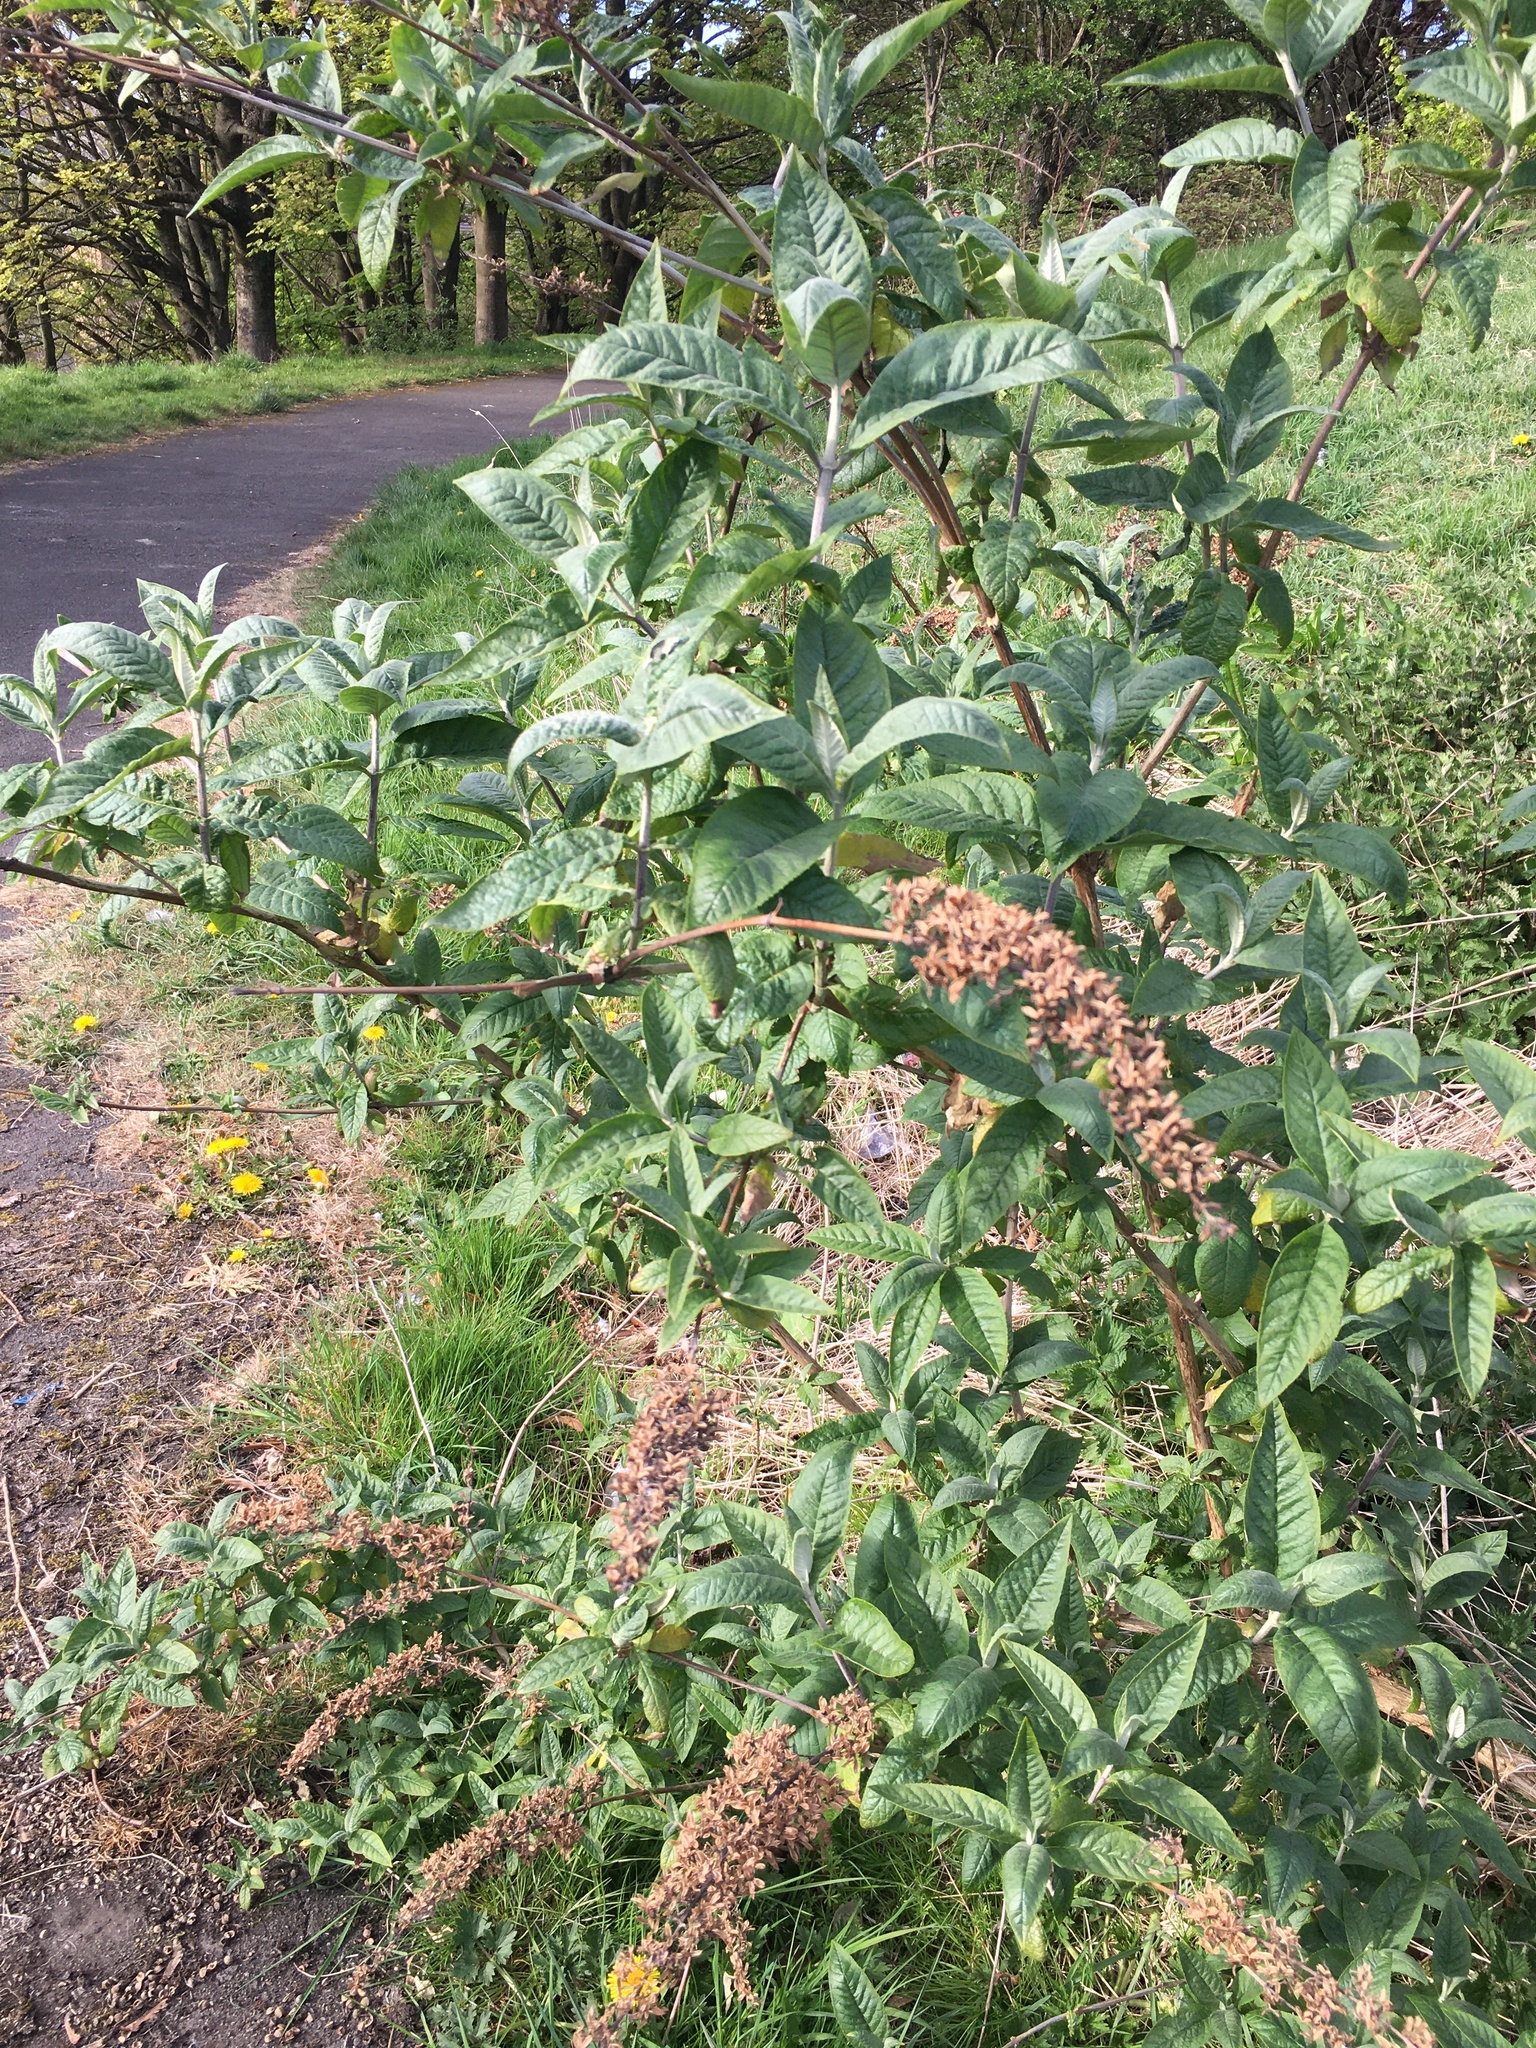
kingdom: Plantae
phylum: Tracheophyta
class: Magnoliopsida
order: Lamiales
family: Scrophulariaceae
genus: Buddleja
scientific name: Buddleja davidii
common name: Butterfly-bush
